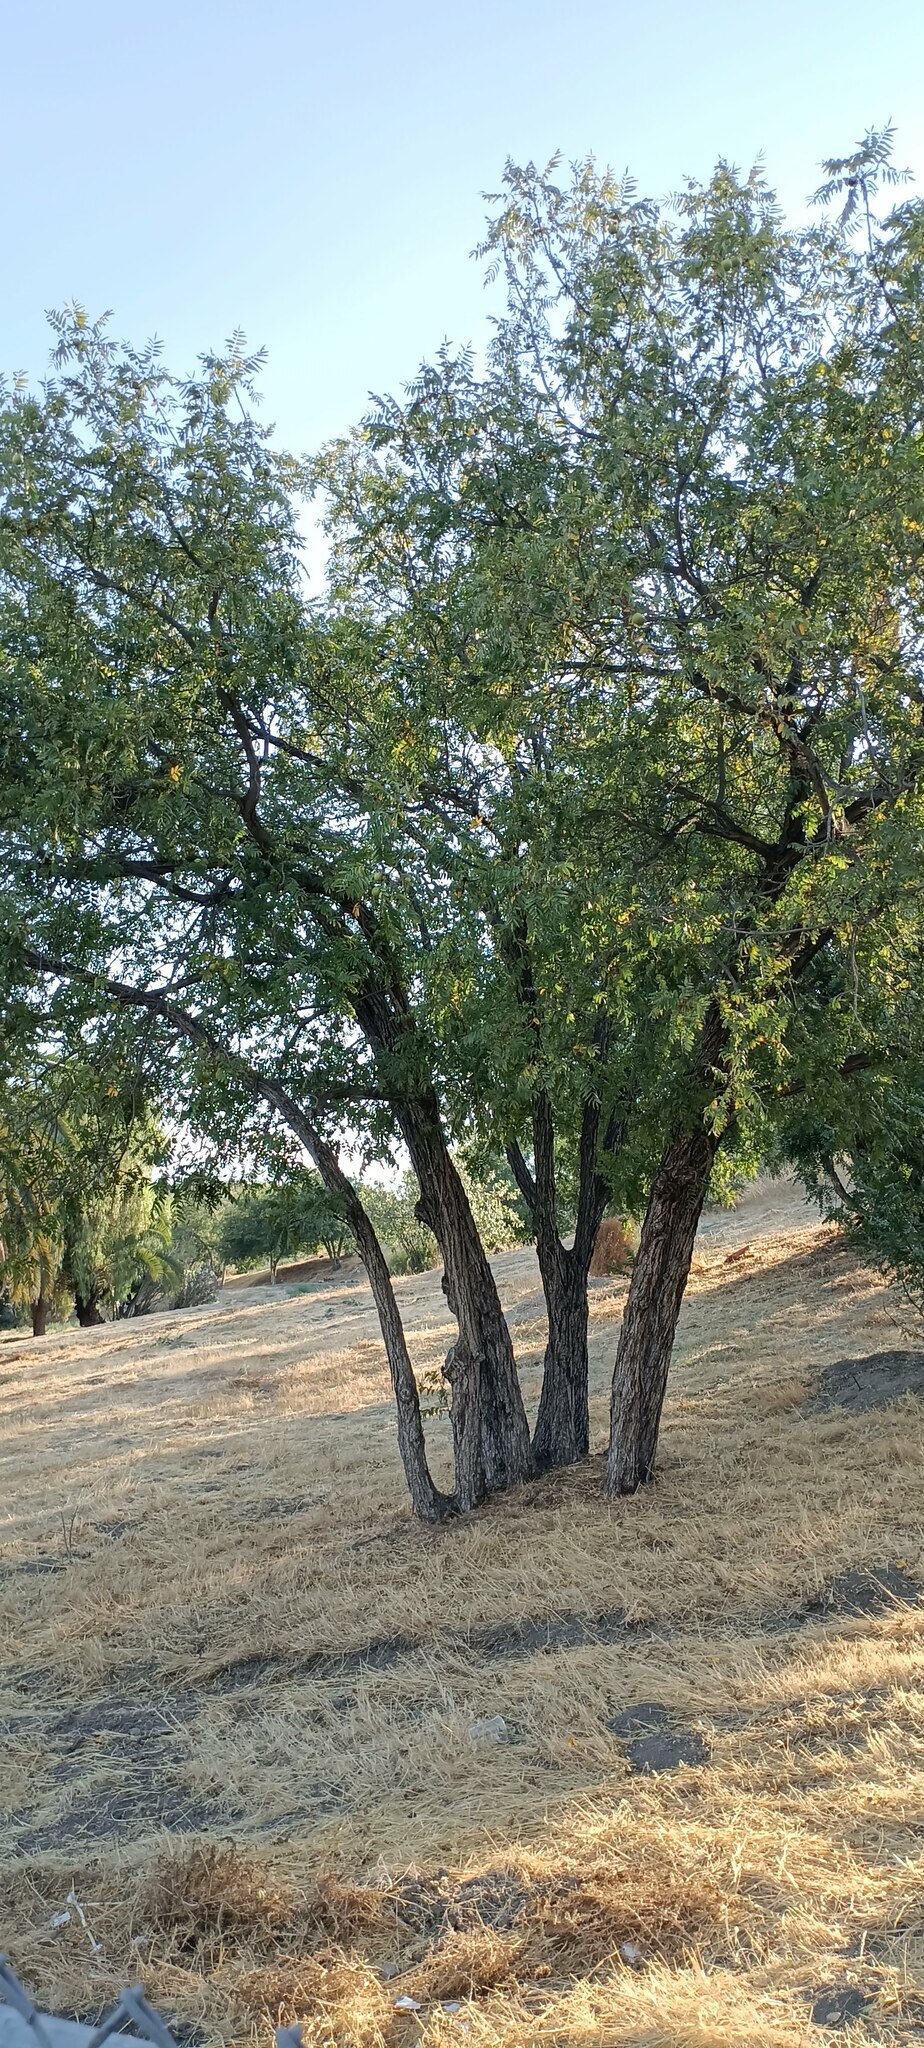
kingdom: Plantae
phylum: Tracheophyta
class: Magnoliopsida
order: Fagales
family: Juglandaceae
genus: Juglans
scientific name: Juglans californica
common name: Southern california black walnut
